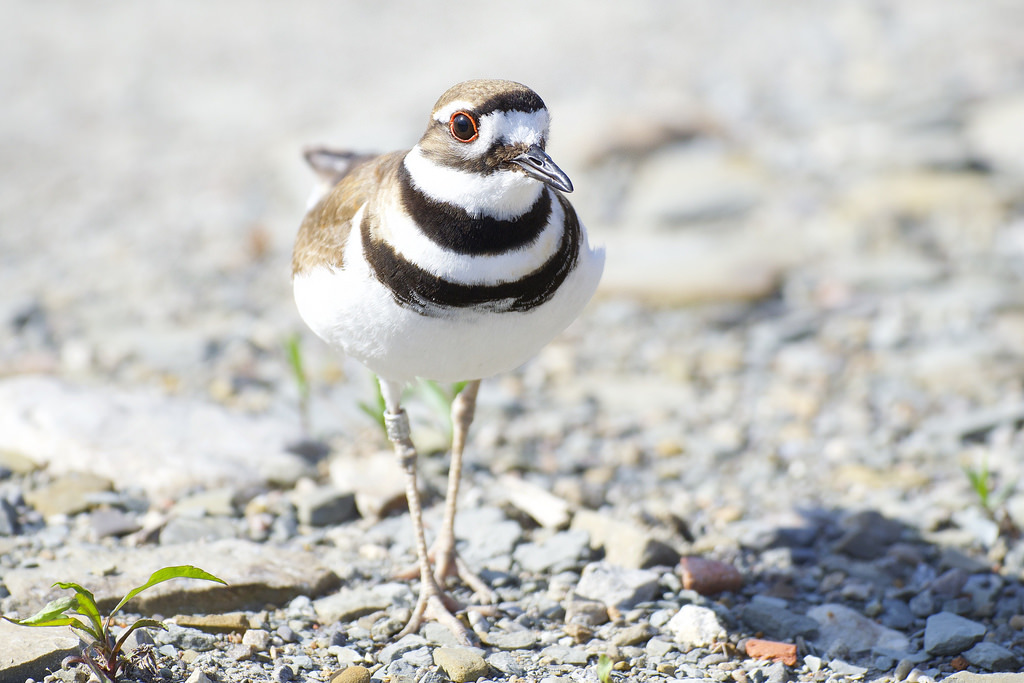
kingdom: Animalia
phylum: Chordata
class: Aves
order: Charadriiformes
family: Charadriidae
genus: Charadrius
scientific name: Charadrius vociferus
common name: Killdeer
